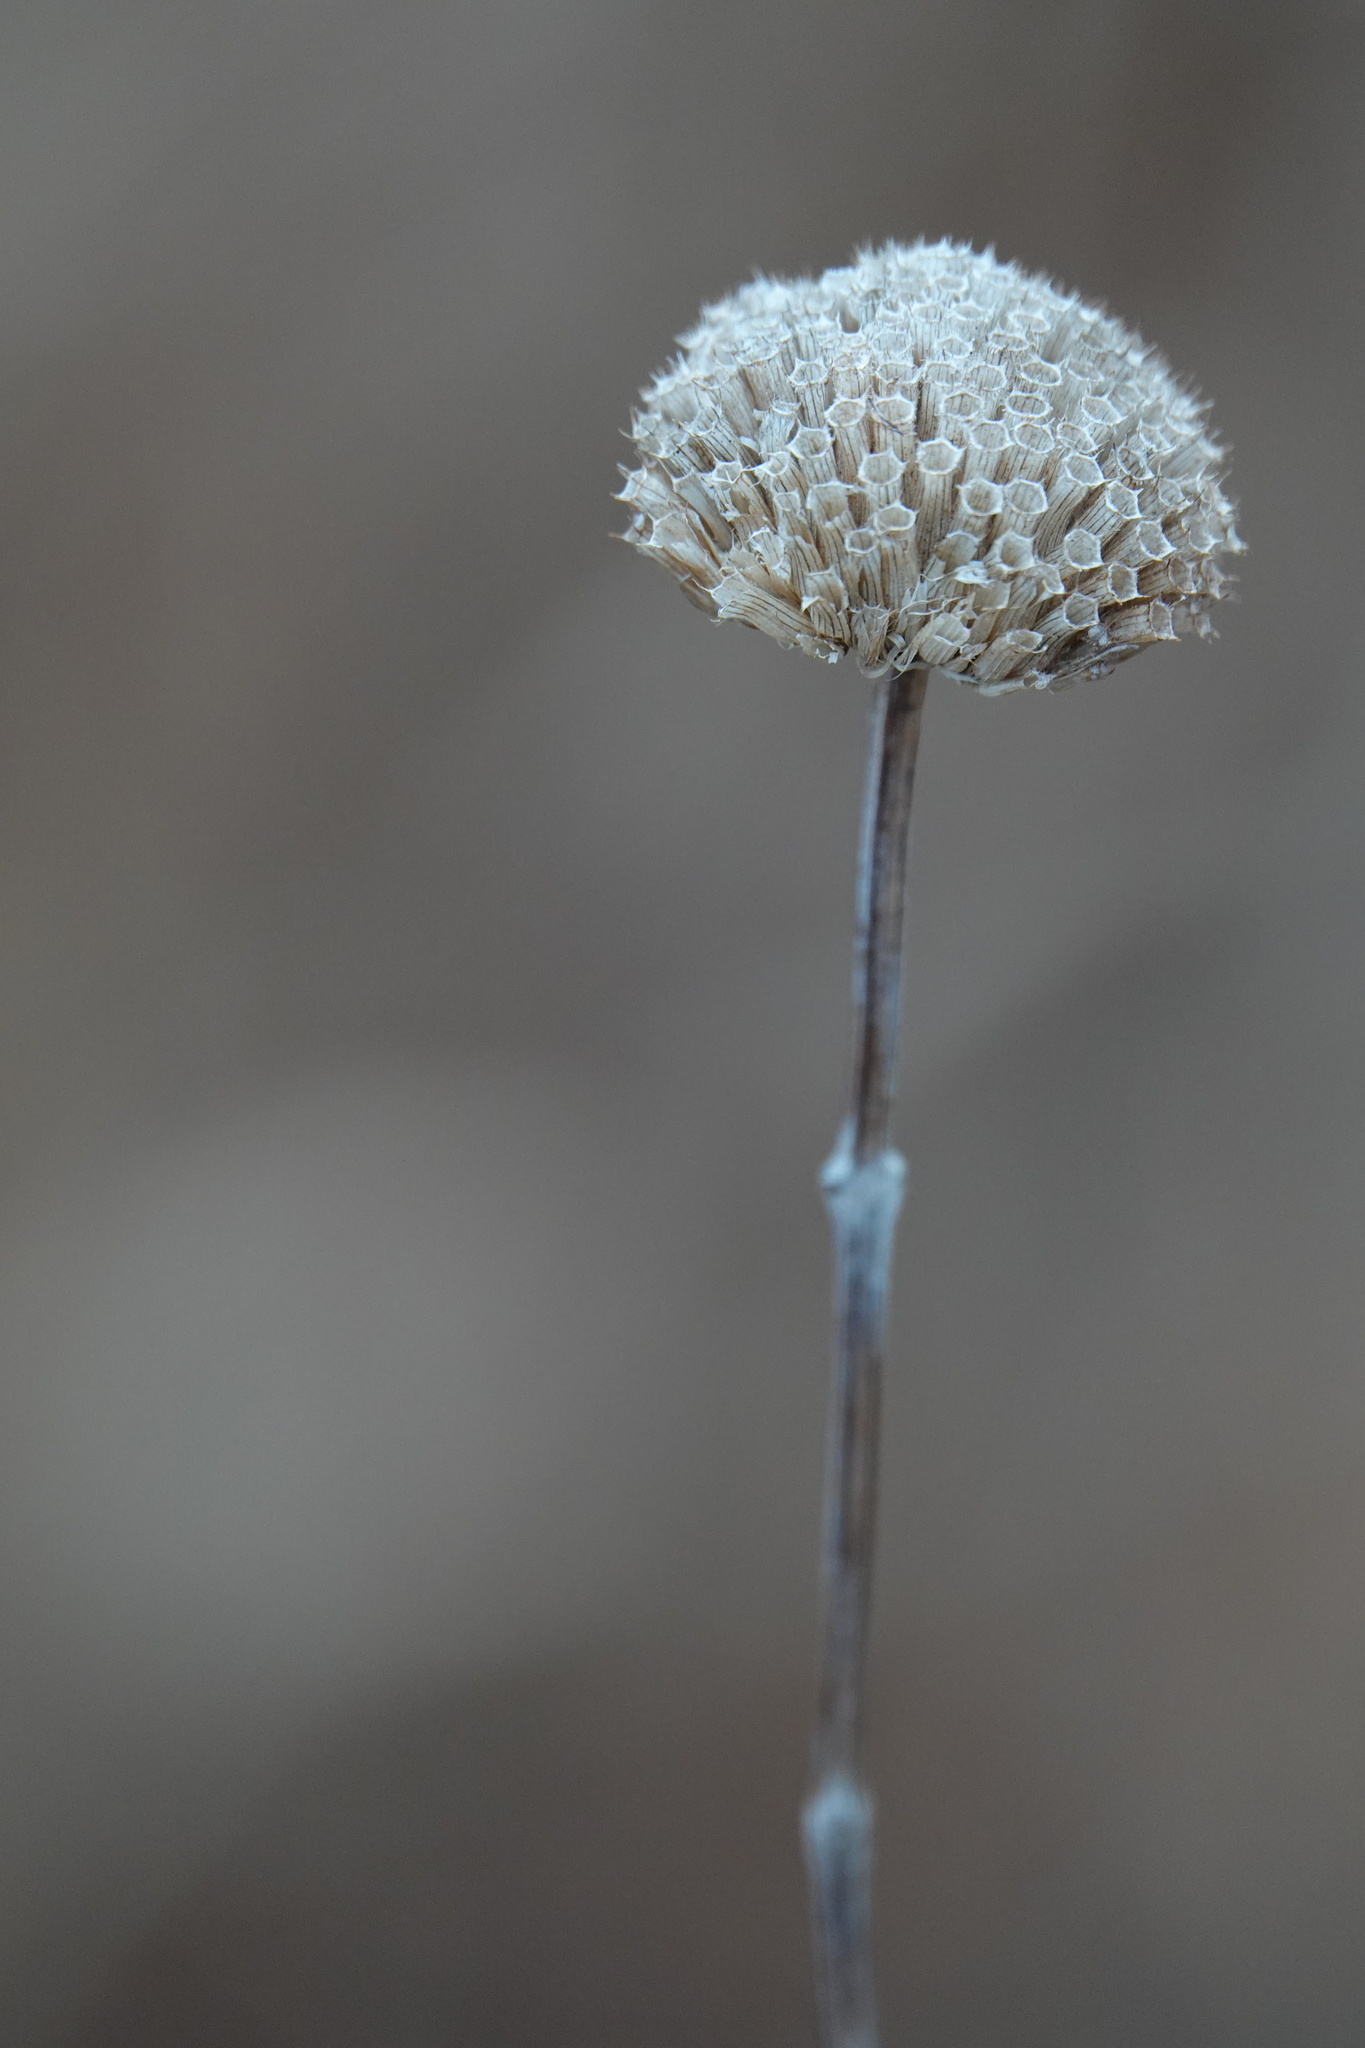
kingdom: Plantae
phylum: Tracheophyta
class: Magnoliopsida
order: Lamiales
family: Lamiaceae
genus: Monarda
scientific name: Monarda fistulosa
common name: Purple beebalm
